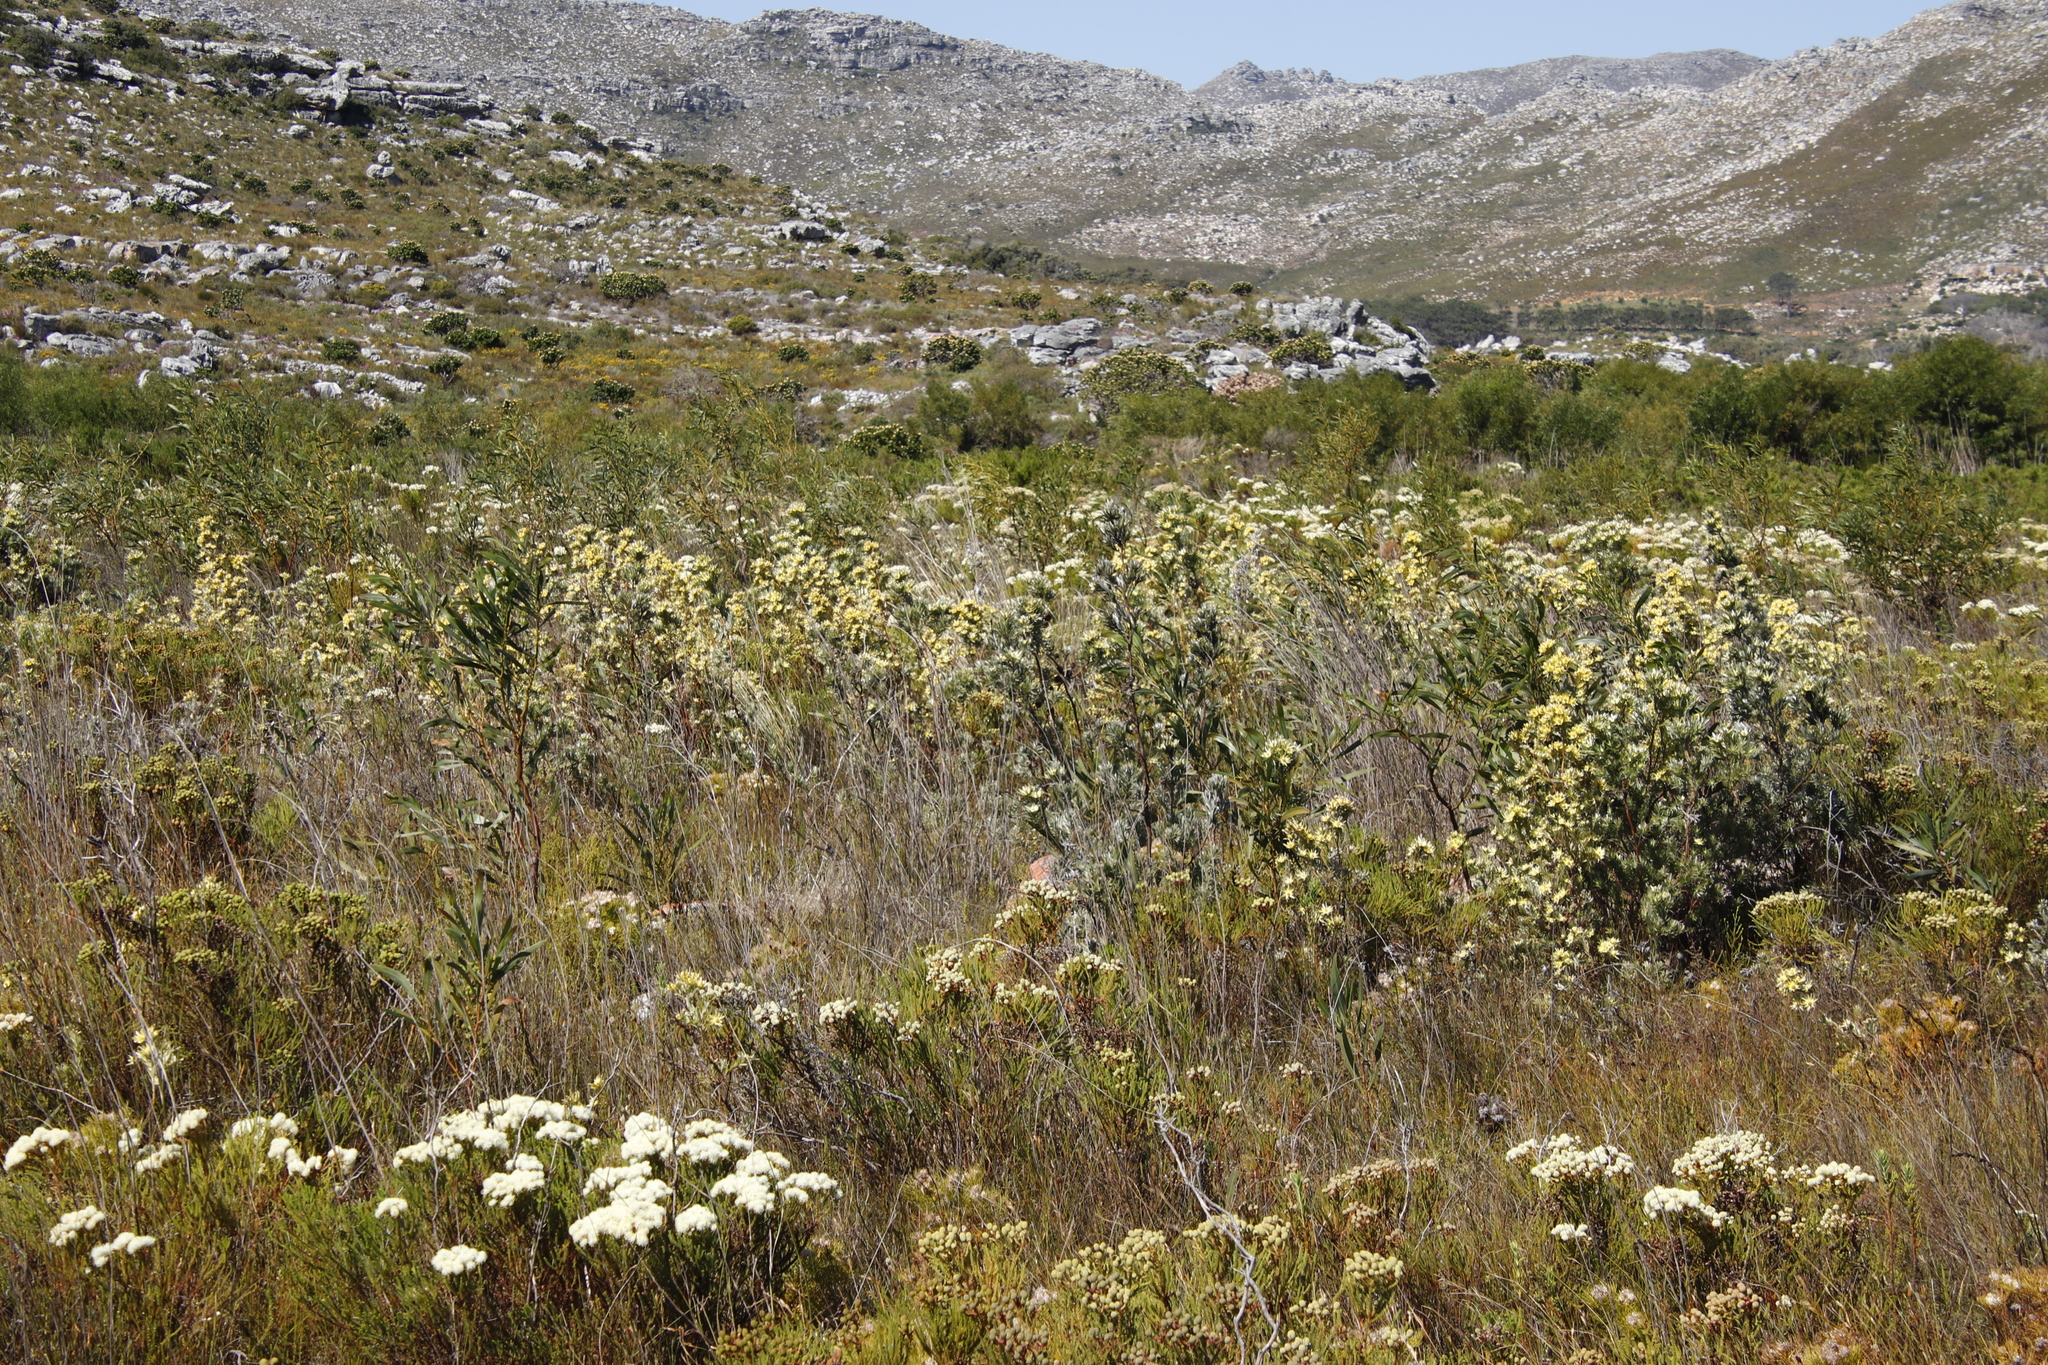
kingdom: Plantae
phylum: Tracheophyta
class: Magnoliopsida
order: Proteales
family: Proteaceae
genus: Leucadendron
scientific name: Leucadendron floridum
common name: Flats conebush
